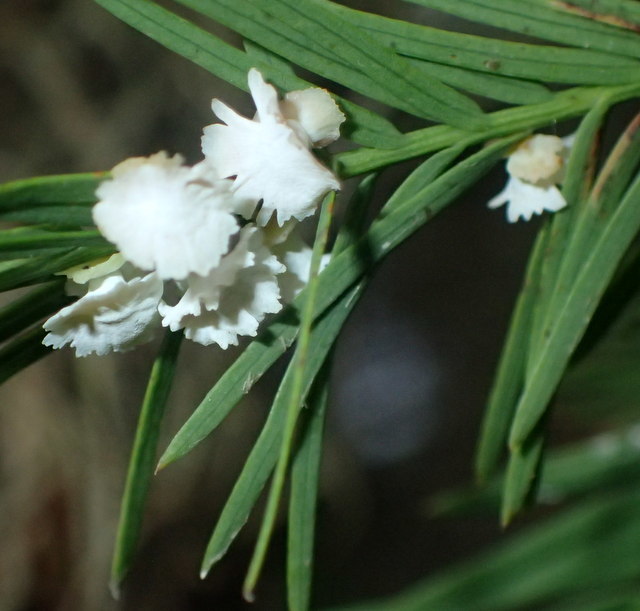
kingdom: Animalia
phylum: Arthropoda
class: Insecta
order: Diptera
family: Cecidomyiidae
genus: Taxodiomyia
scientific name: Taxodiomyia cupressi
